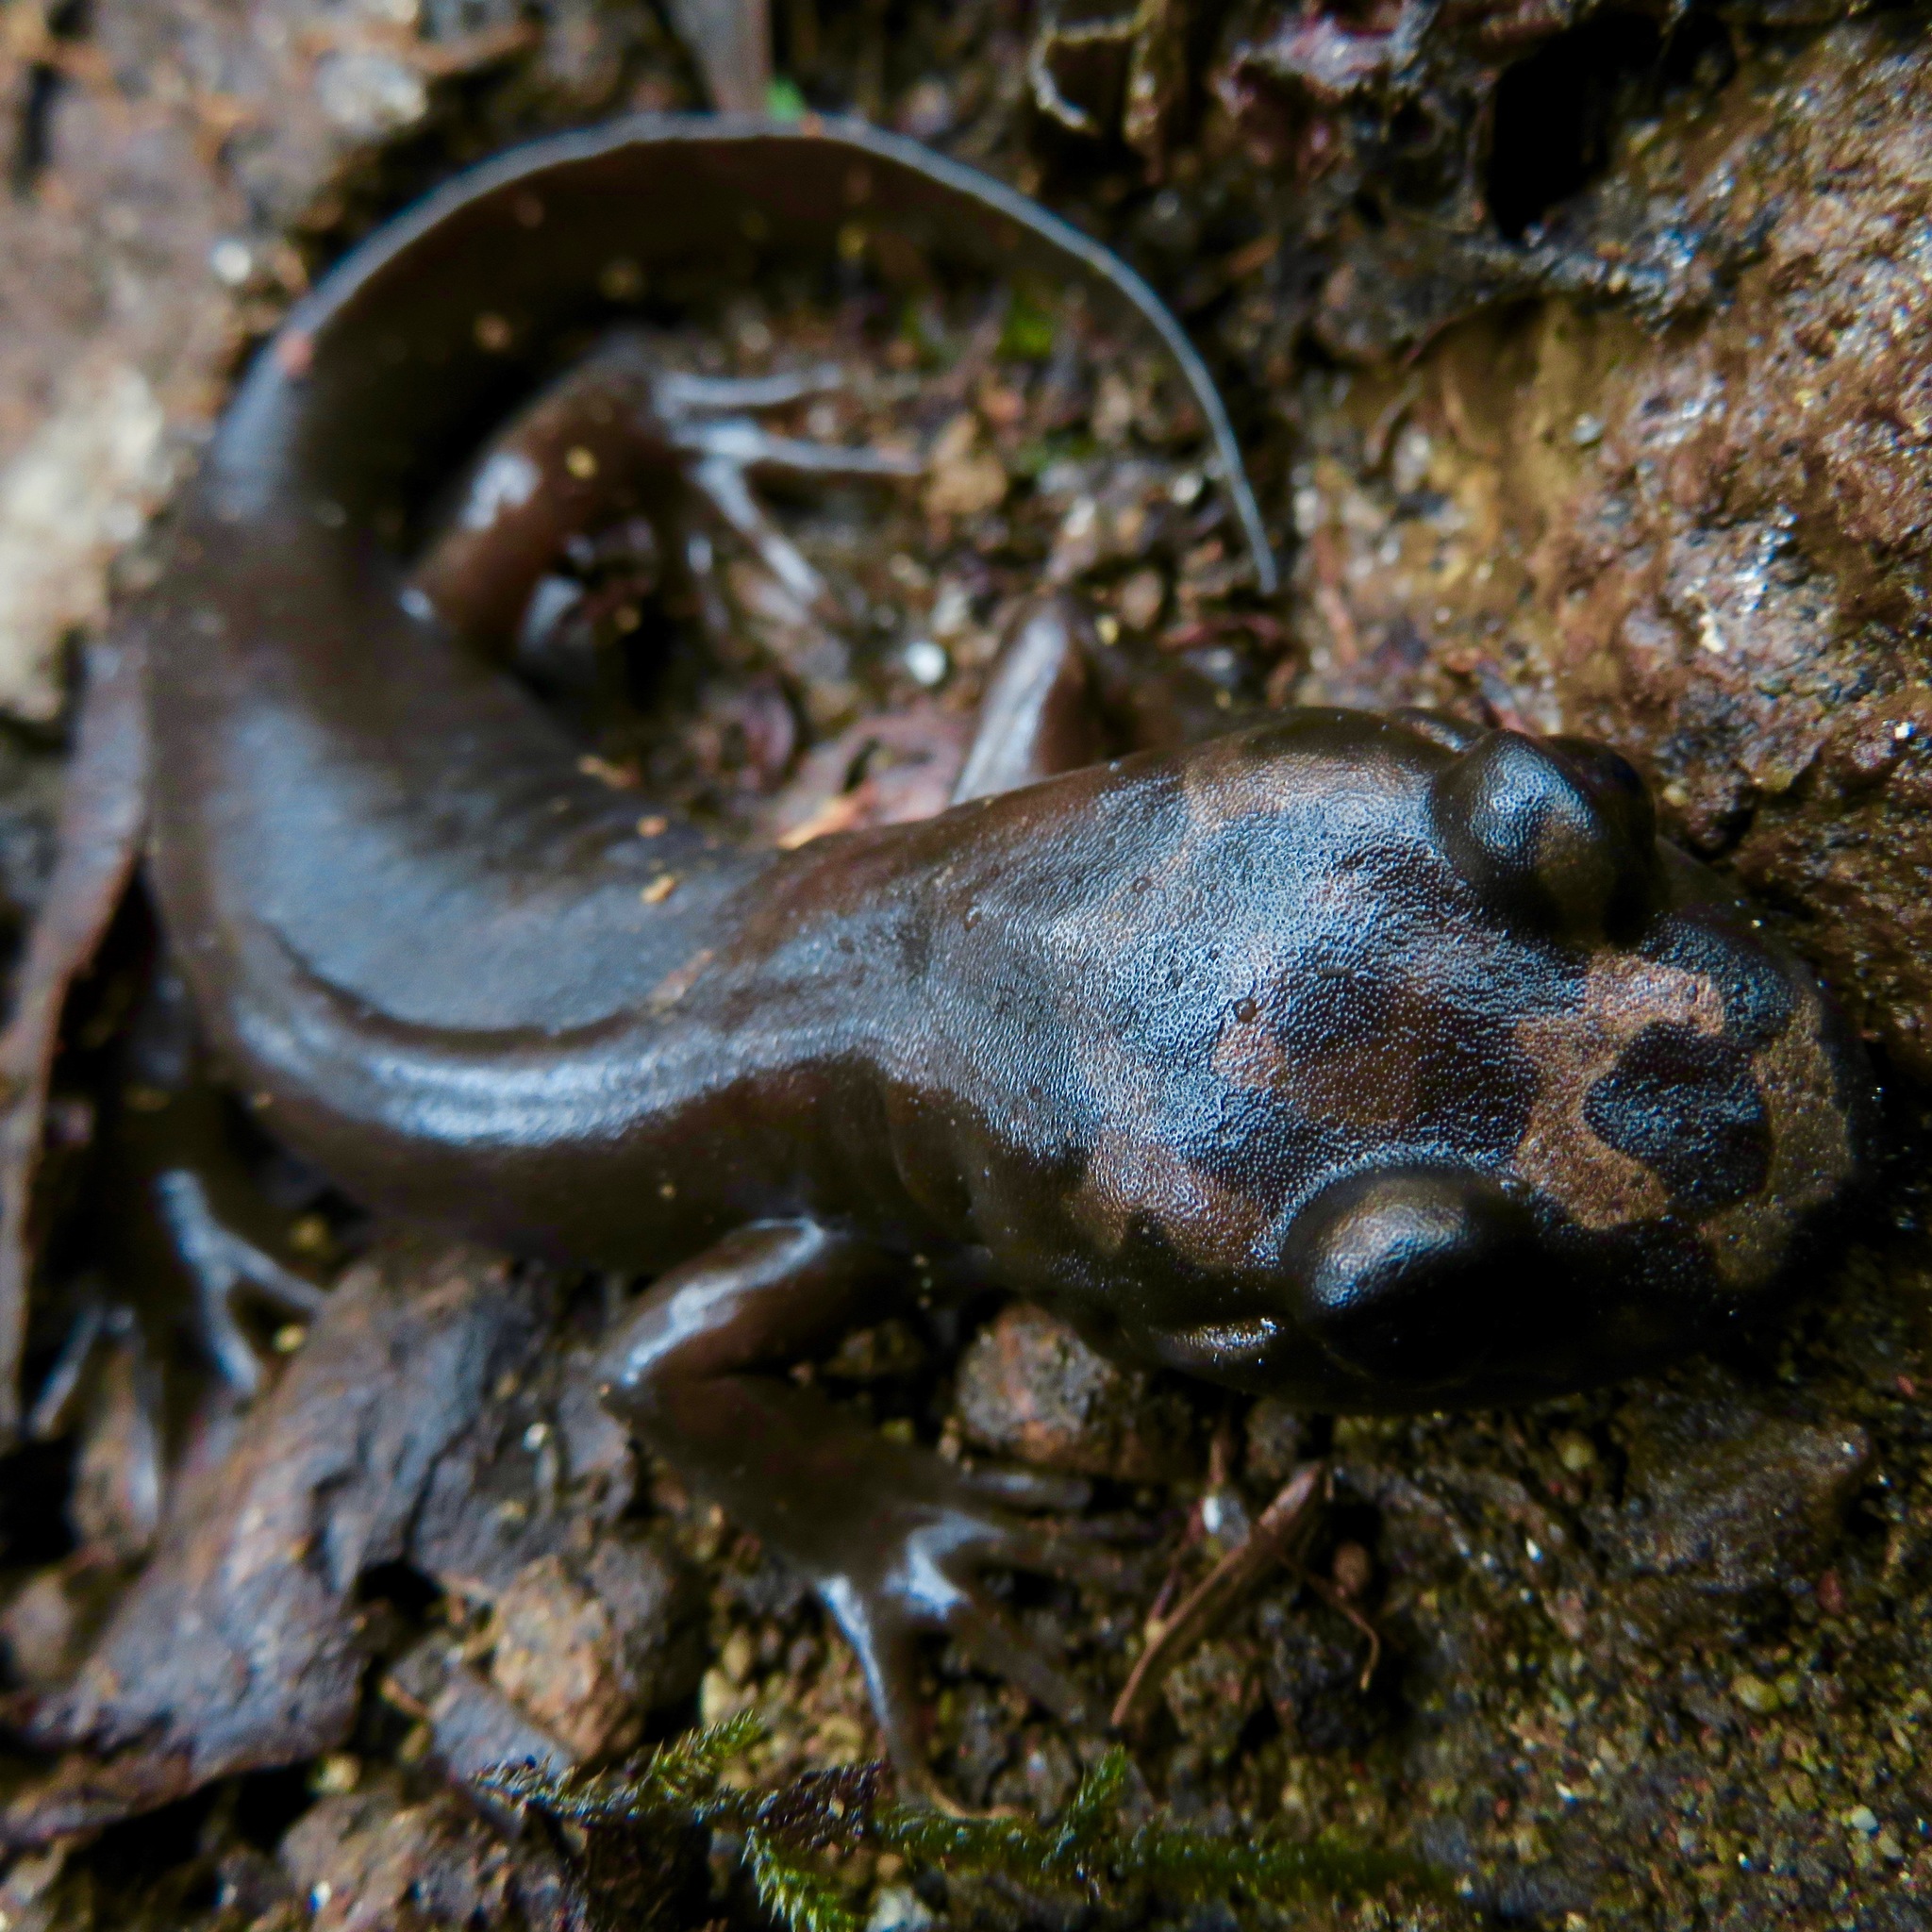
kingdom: Animalia
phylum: Chordata
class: Amphibia
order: Caudata
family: Ambystomatidae
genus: Dicamptodon
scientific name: Dicamptodon ensatus
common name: California giant salamander
